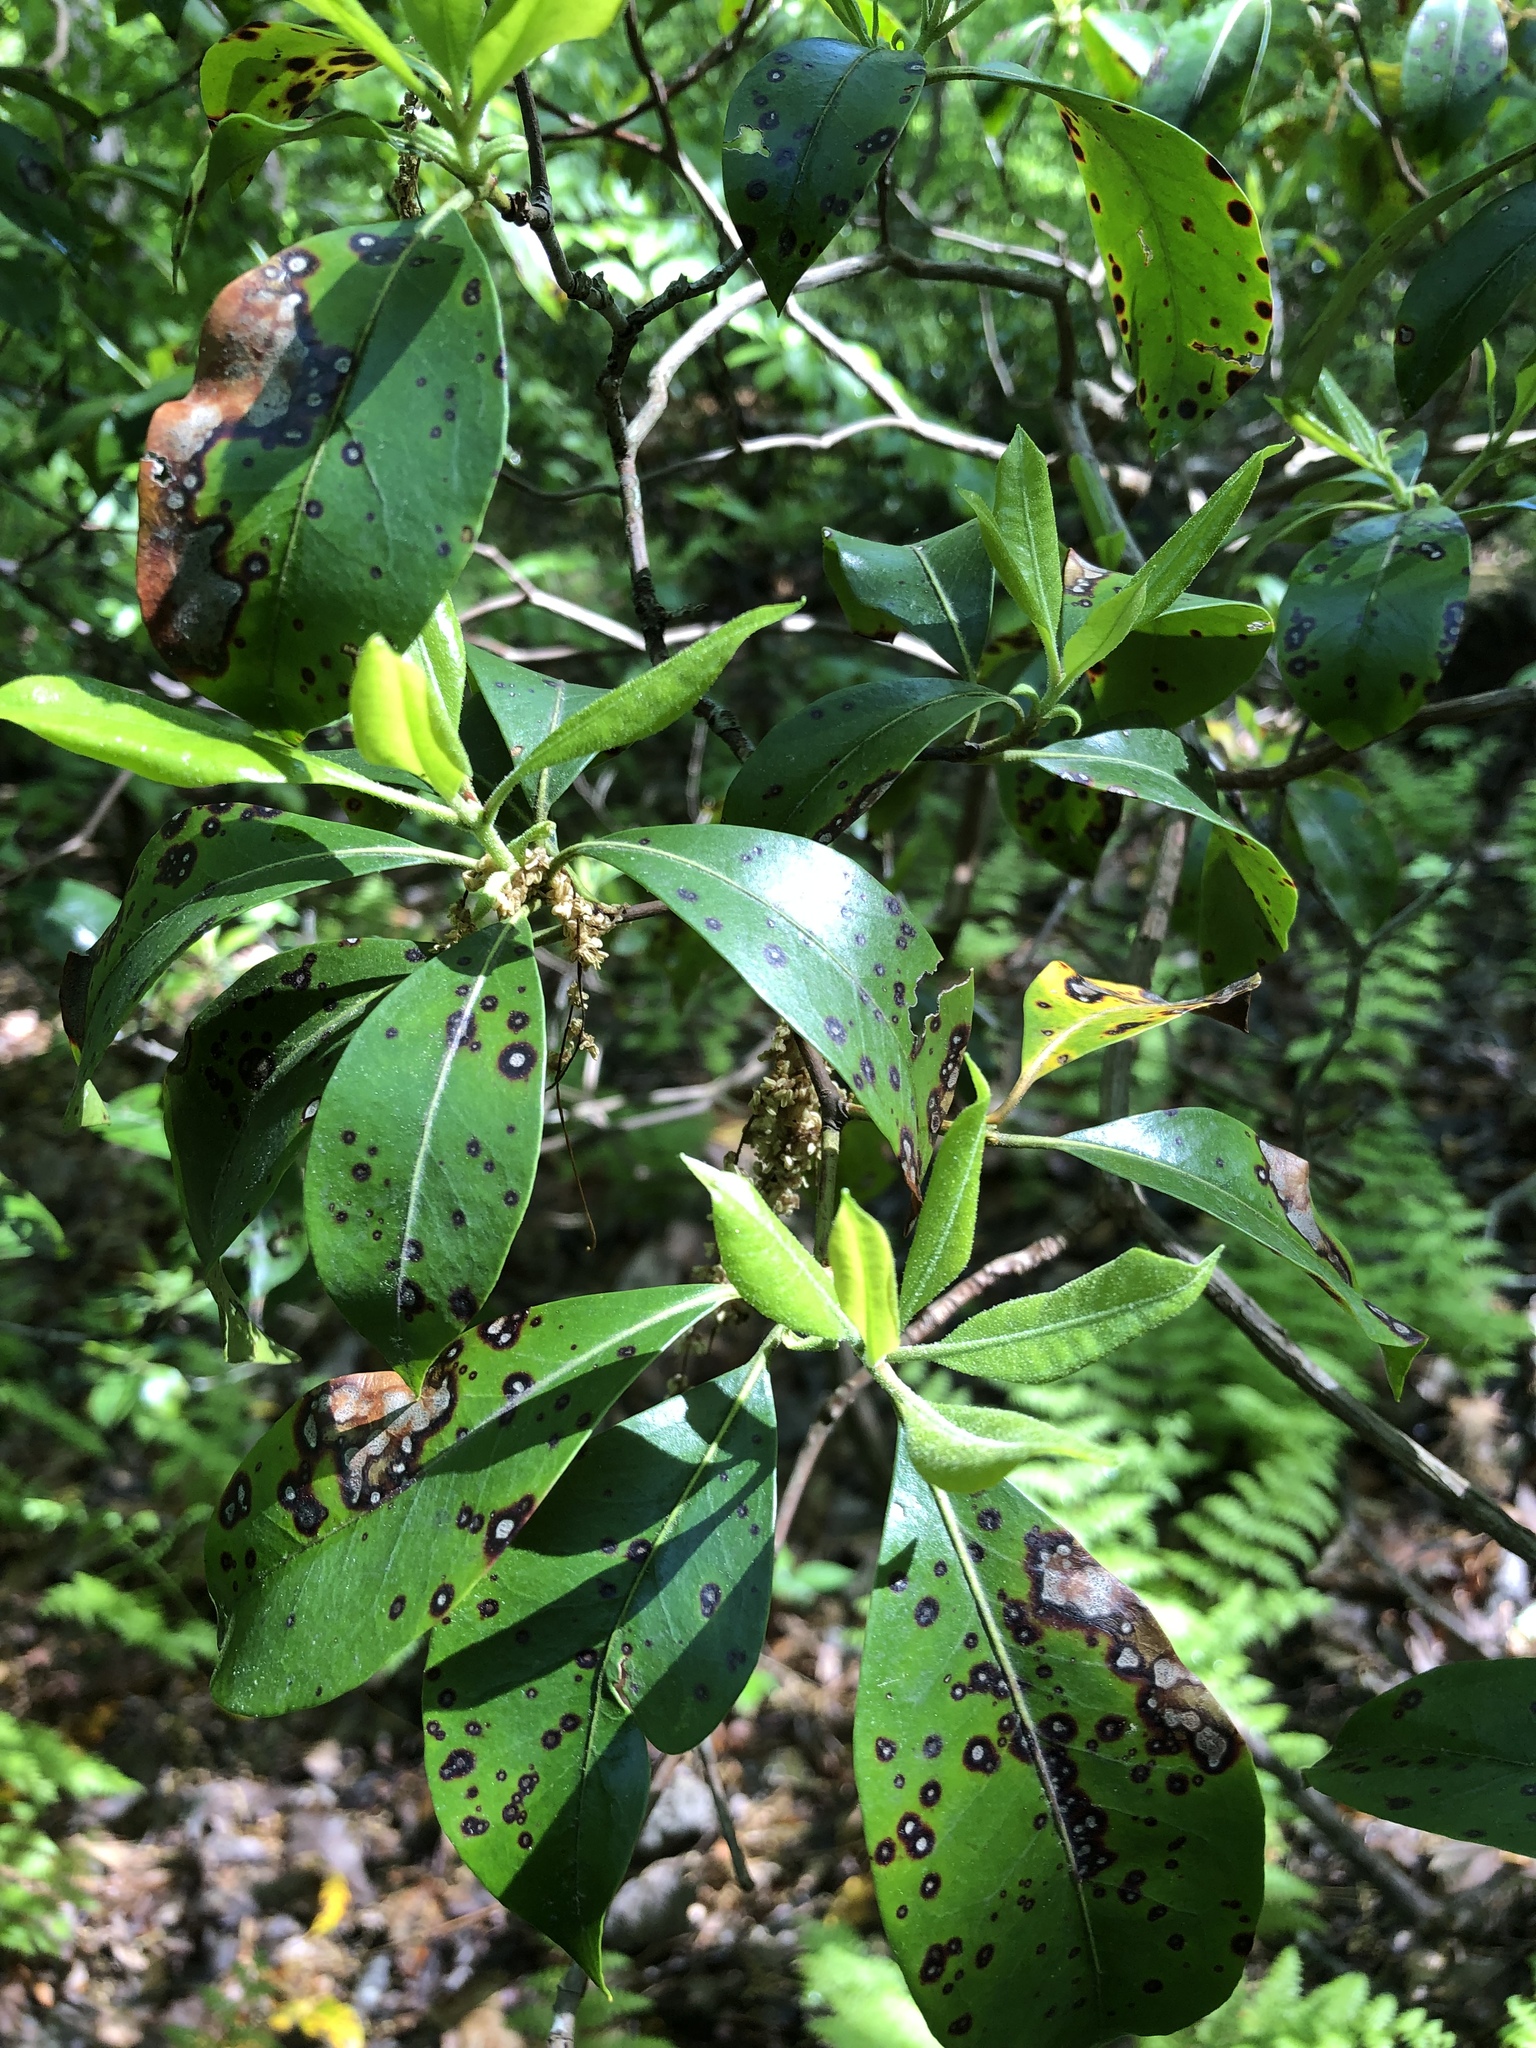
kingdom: Plantae
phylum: Tracheophyta
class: Magnoliopsida
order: Ericales
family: Ericaceae
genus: Kalmia
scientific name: Kalmia latifolia
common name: Mountain-laurel
